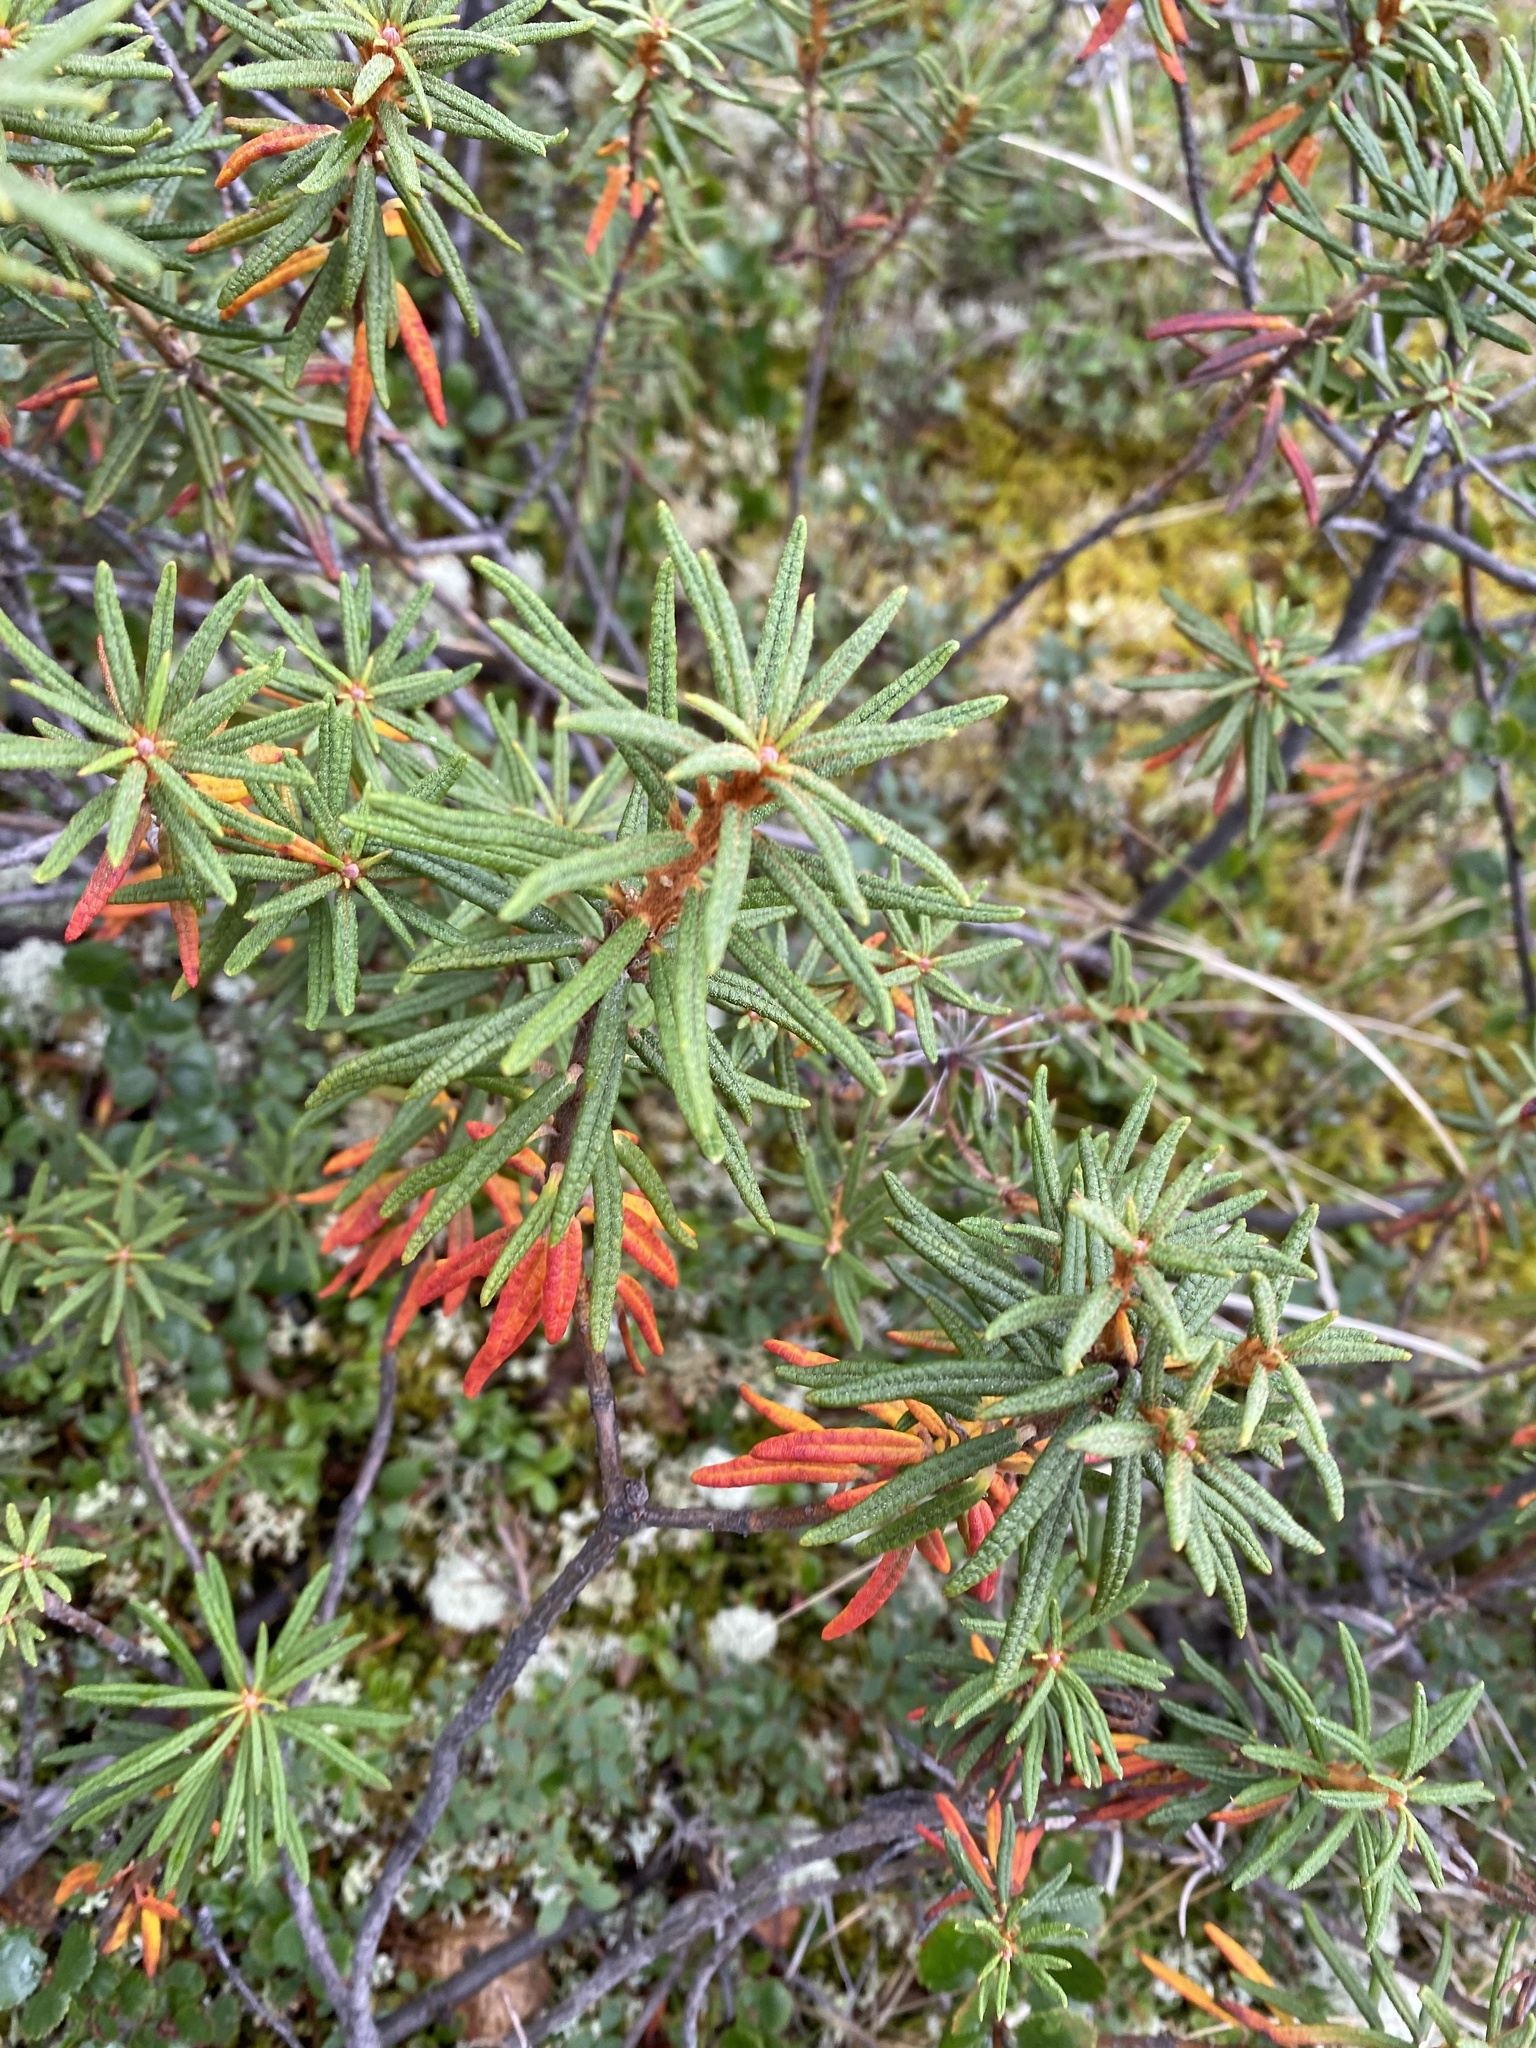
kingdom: Plantae
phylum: Tracheophyta
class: Magnoliopsida
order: Ericales
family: Ericaceae
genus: Rhododendron
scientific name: Rhododendron tomentosum
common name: Marsh labrador tea
